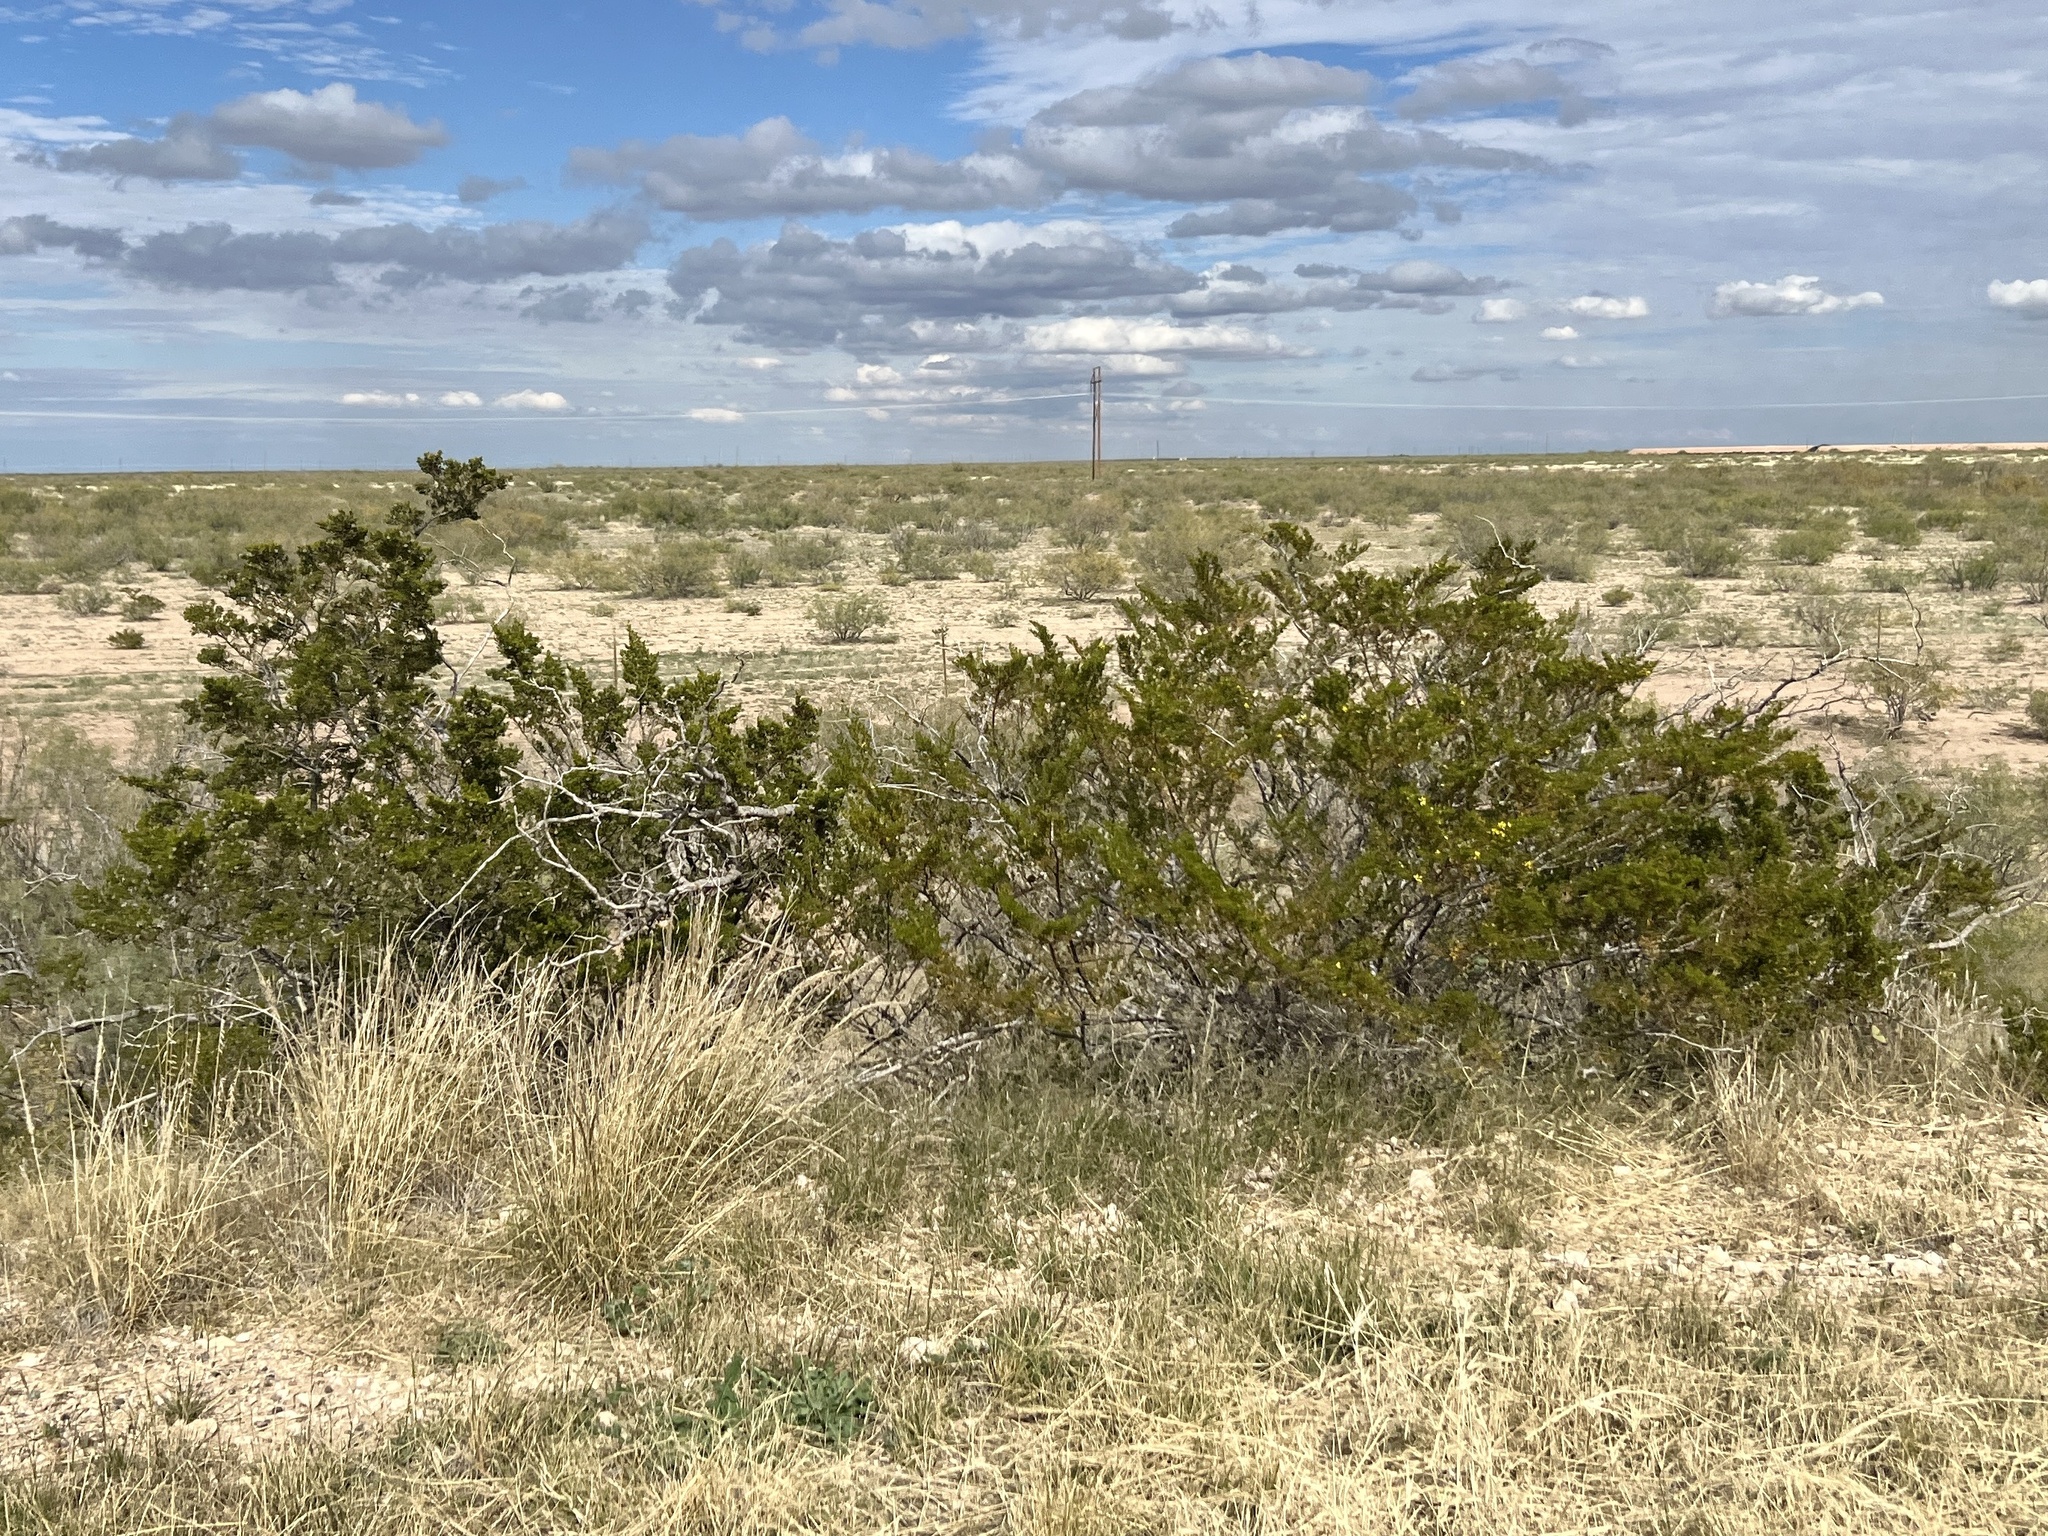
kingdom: Plantae
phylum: Tracheophyta
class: Magnoliopsida
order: Zygophyllales
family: Zygophyllaceae
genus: Larrea
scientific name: Larrea tridentata
